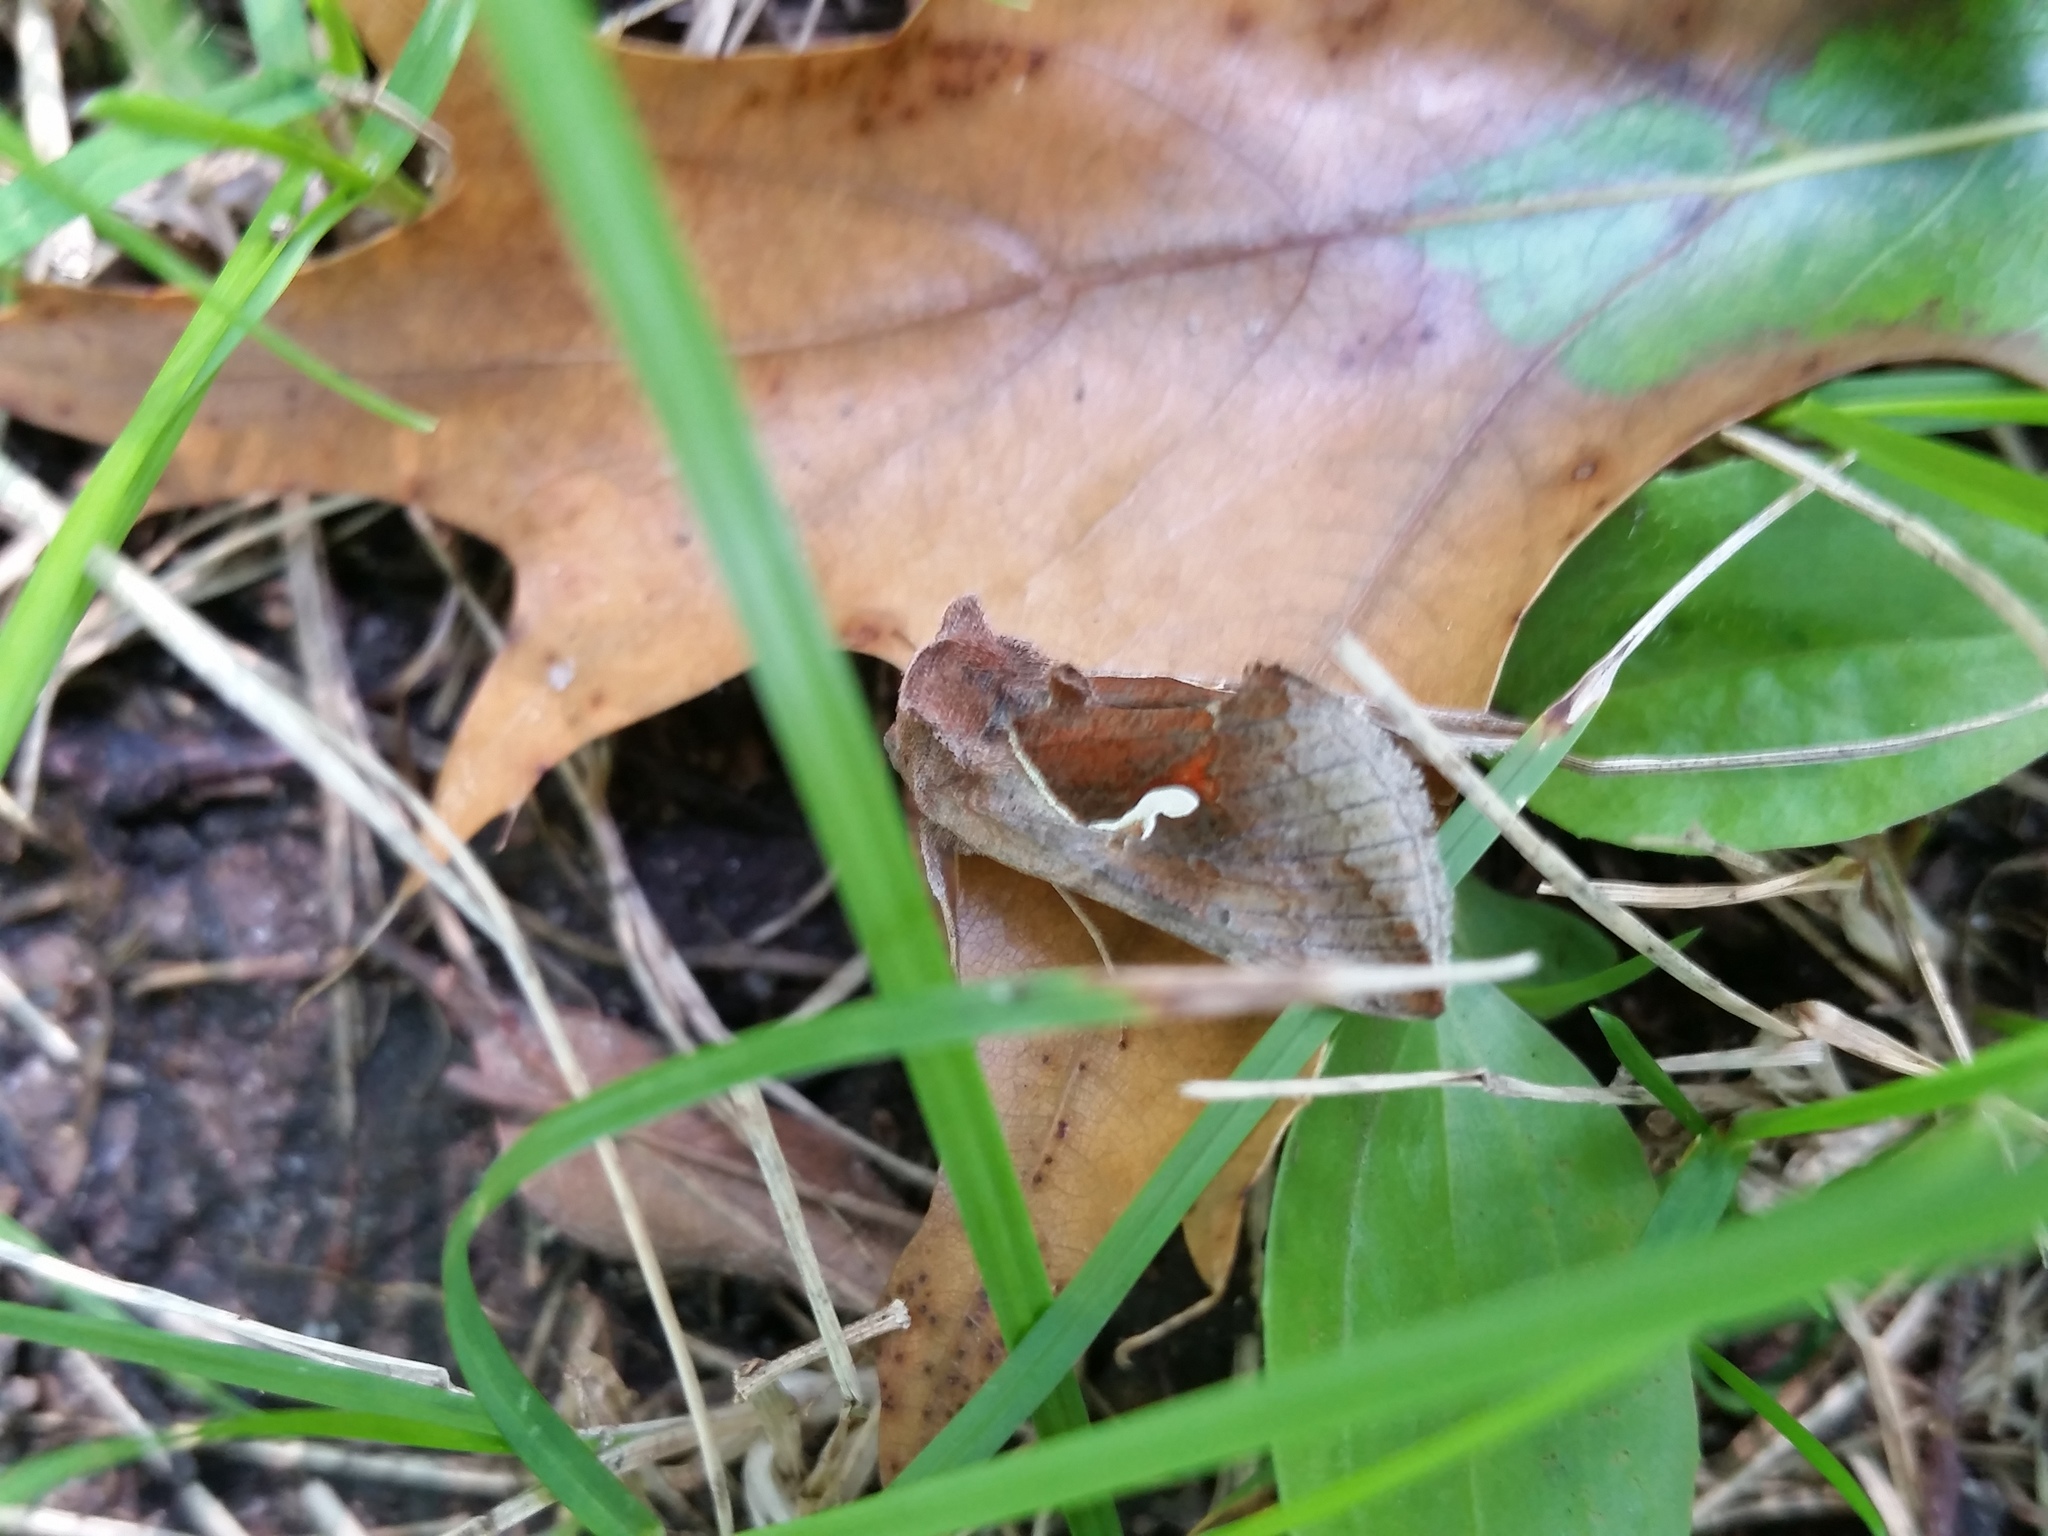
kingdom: Animalia
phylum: Arthropoda
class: Insecta
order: Lepidoptera
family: Noctuidae
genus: Anagrapha
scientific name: Anagrapha falcifera
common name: Celery looper
